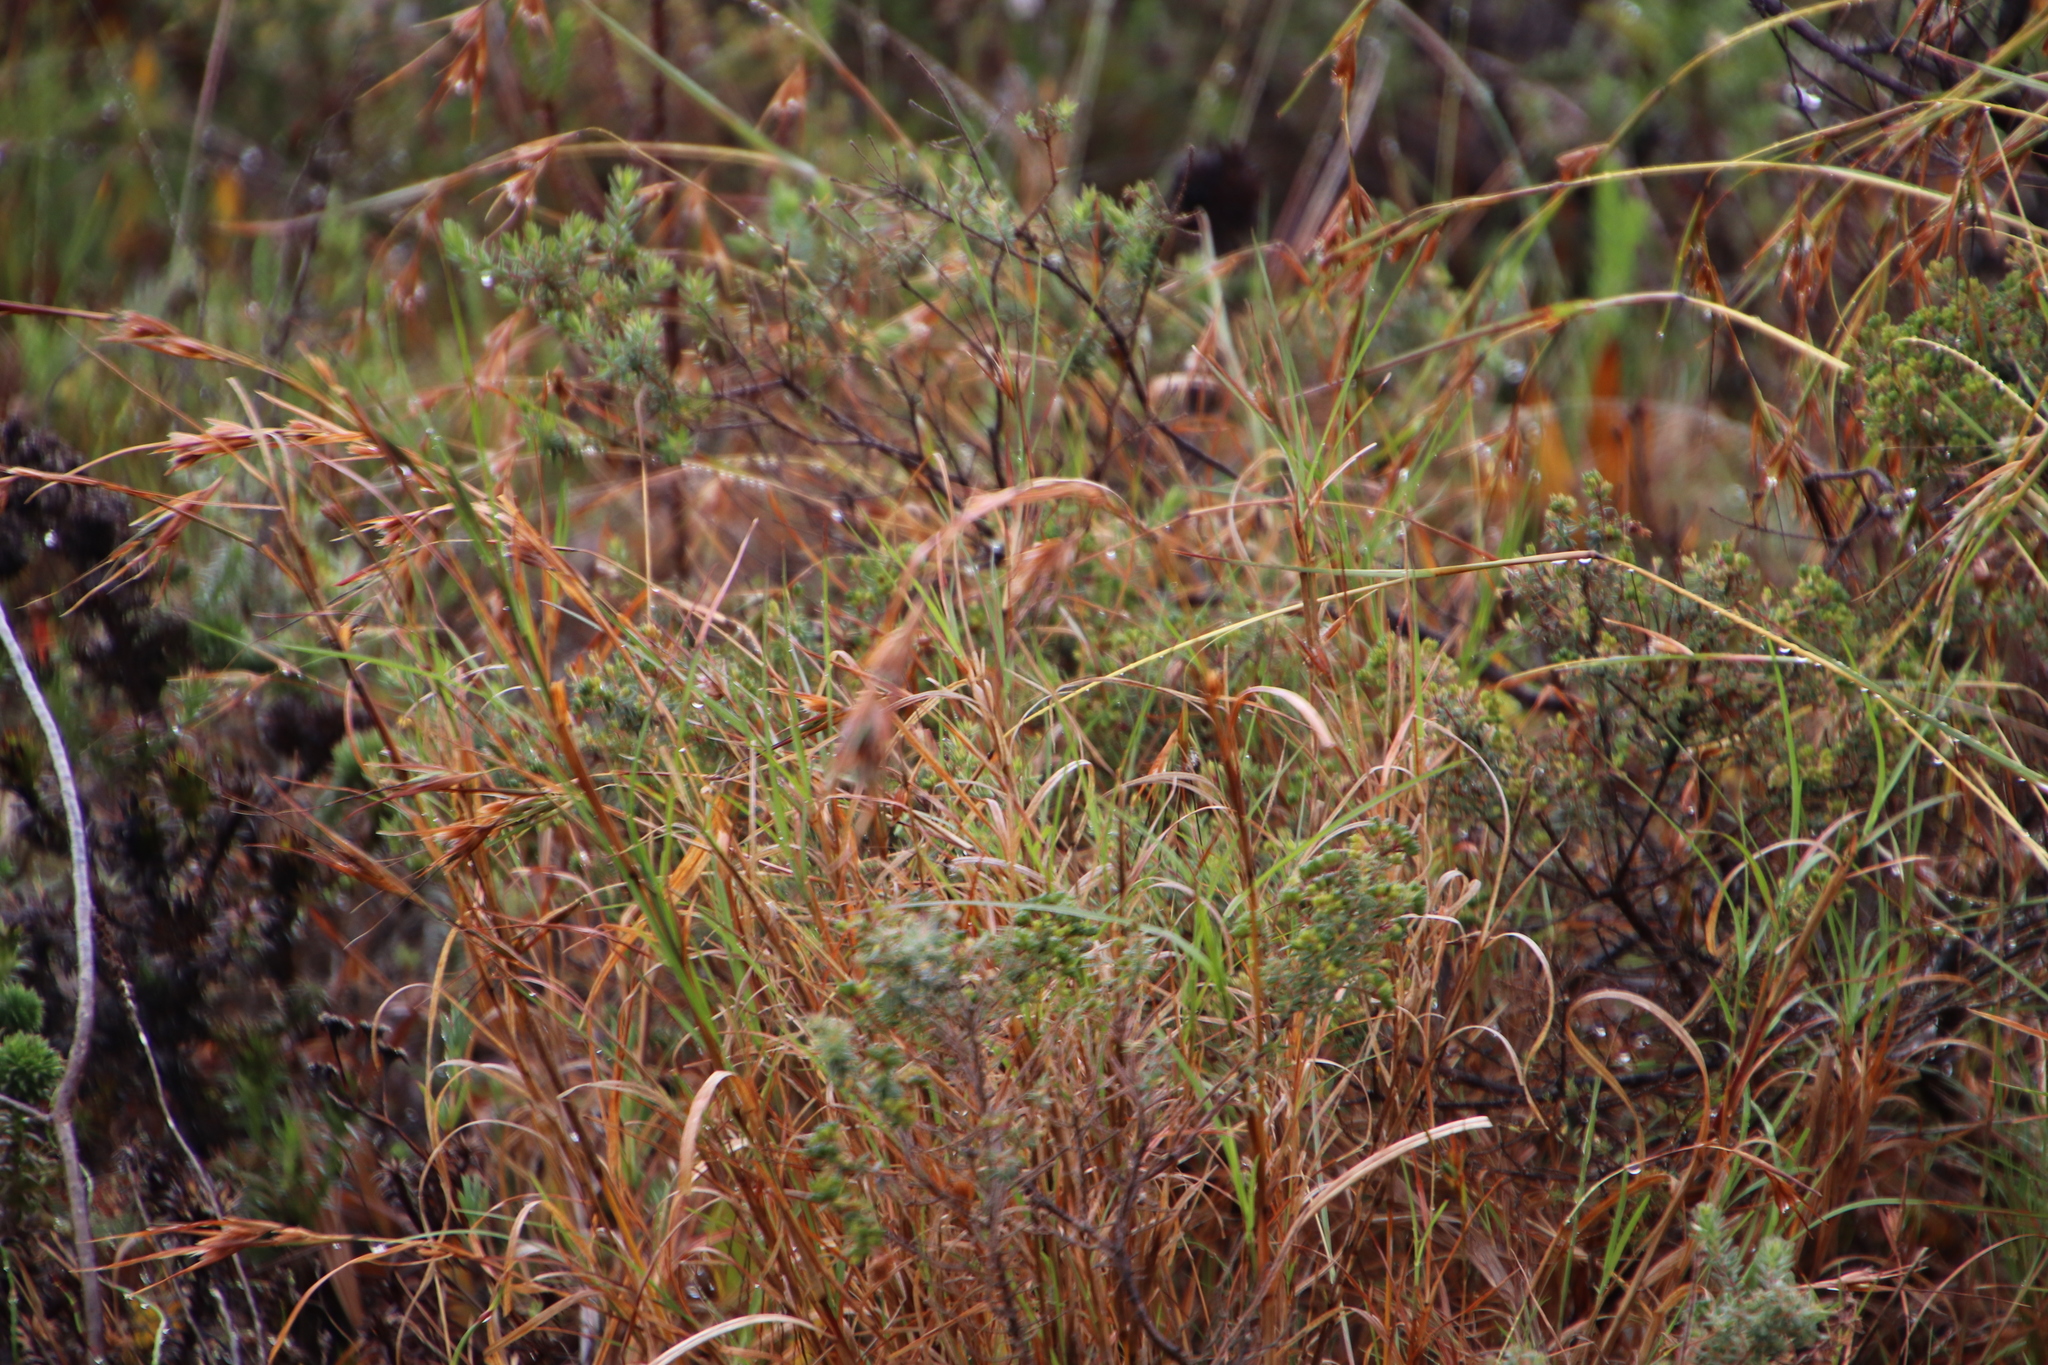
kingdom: Plantae
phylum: Tracheophyta
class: Liliopsida
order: Poales
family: Poaceae
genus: Themeda
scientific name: Themeda triandra
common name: Kangaroo grass
